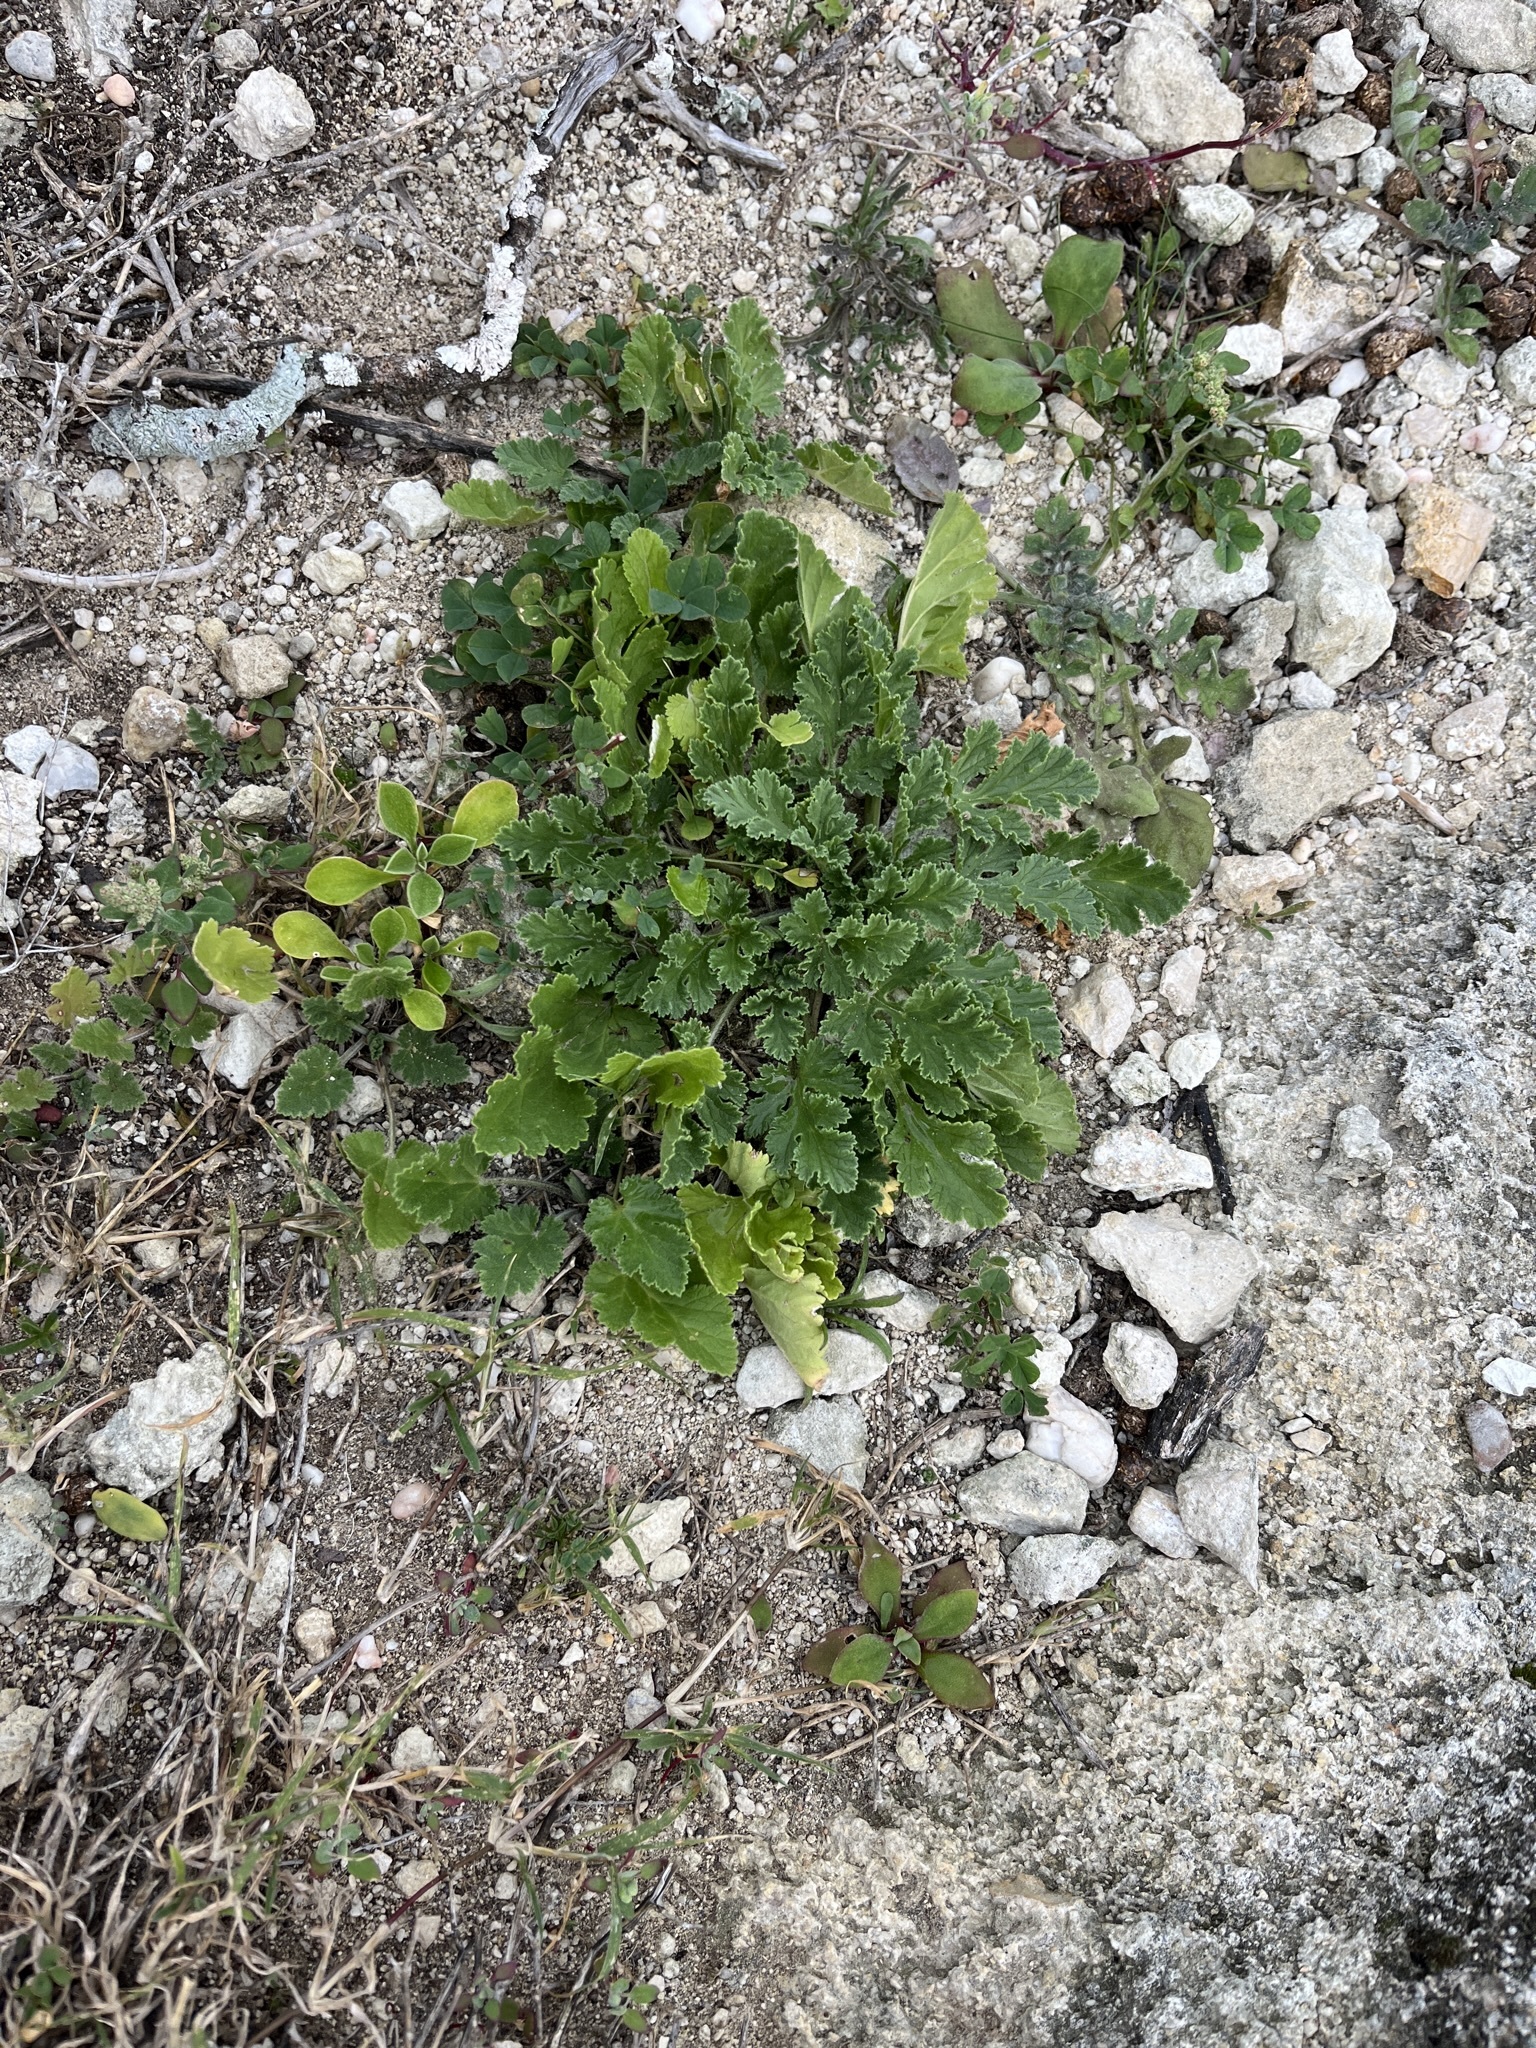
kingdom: Plantae
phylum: Tracheophyta
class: Magnoliopsida
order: Geraniales
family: Geraniaceae
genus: Pelargonium
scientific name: Pelargonium schizopetalum
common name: Divided-petal pelargonium
